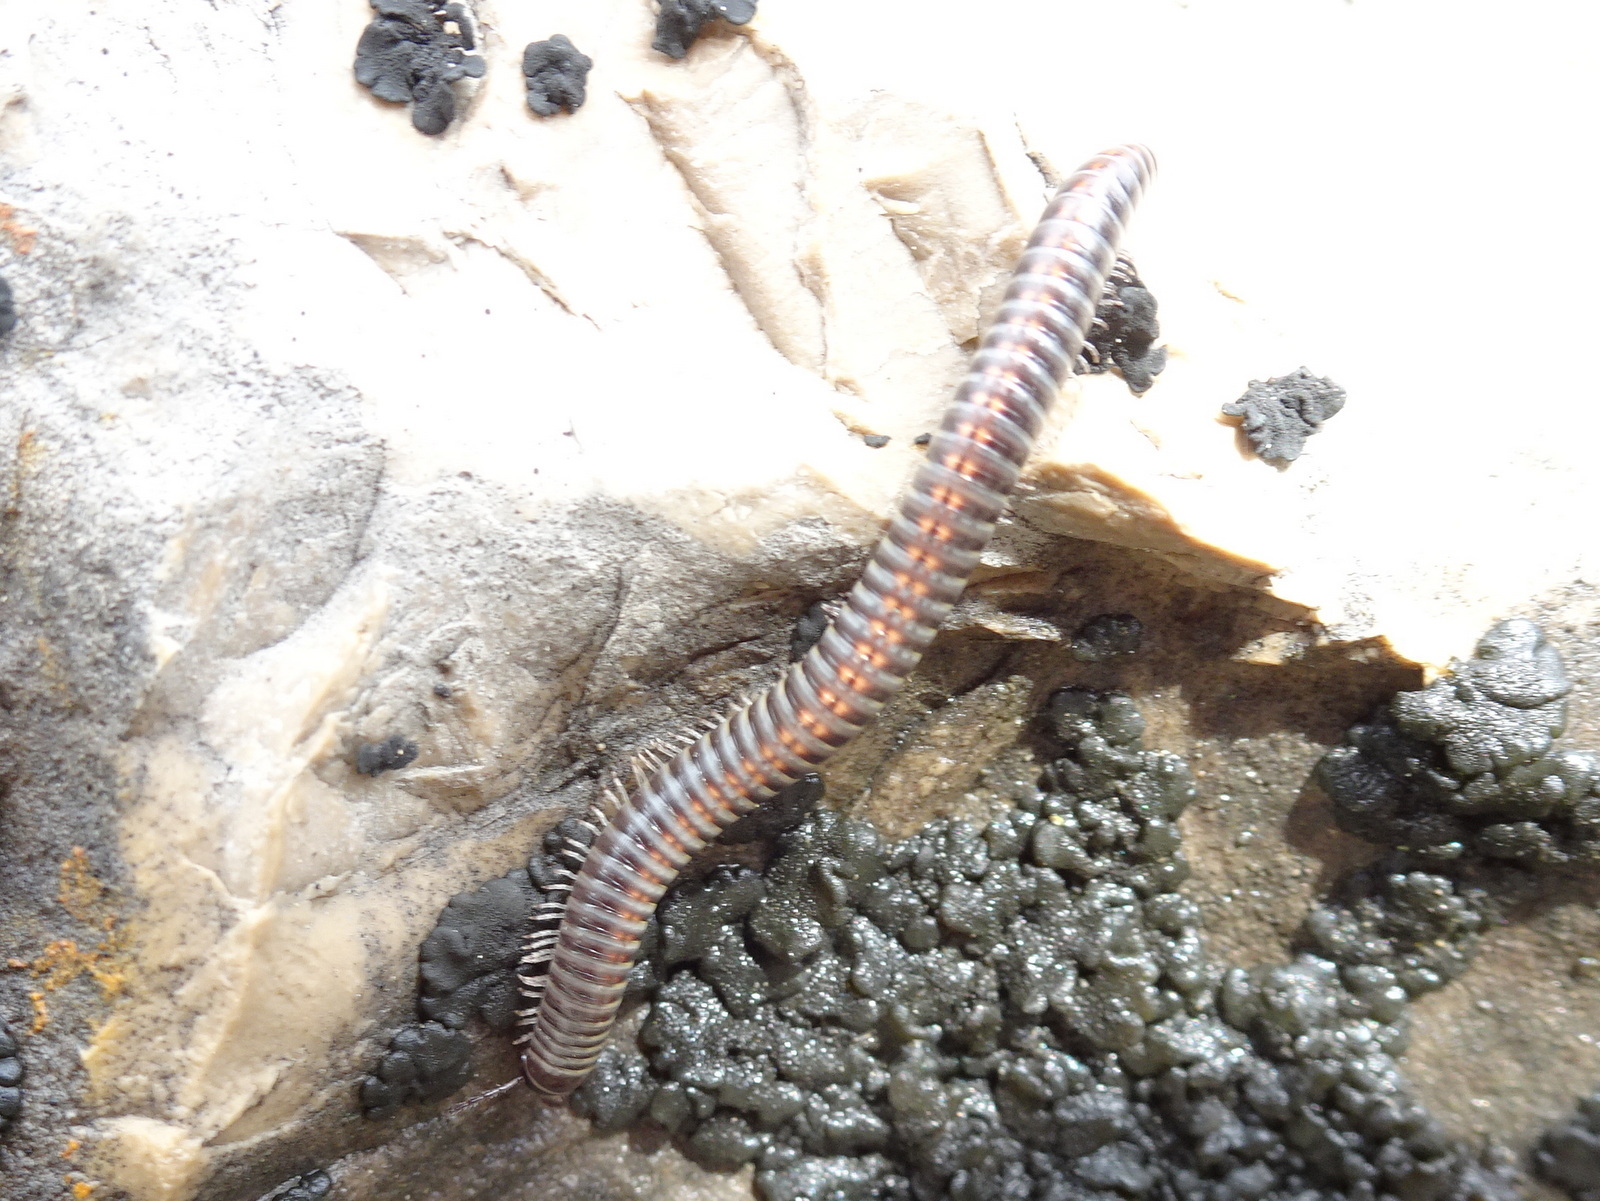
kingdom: Animalia
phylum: Arthropoda
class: Diplopoda
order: Julida
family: Julidae
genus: Ommatoiulus
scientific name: Ommatoiulus sabulosus
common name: Striped millipede
